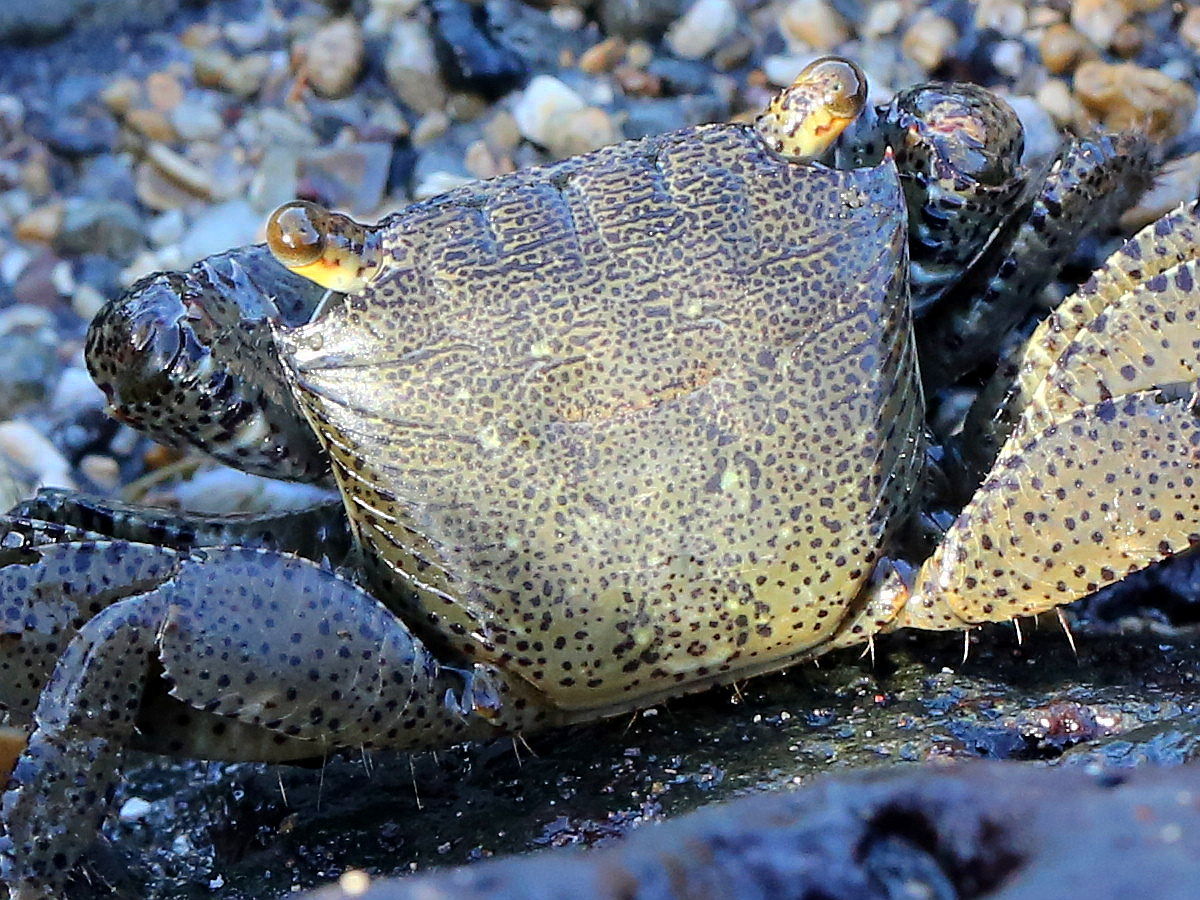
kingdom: Animalia
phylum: Arthropoda
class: Malacostraca
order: Decapoda
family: Grapsidae
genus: Metopograpsus
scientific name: Metopograpsus thukuhar
